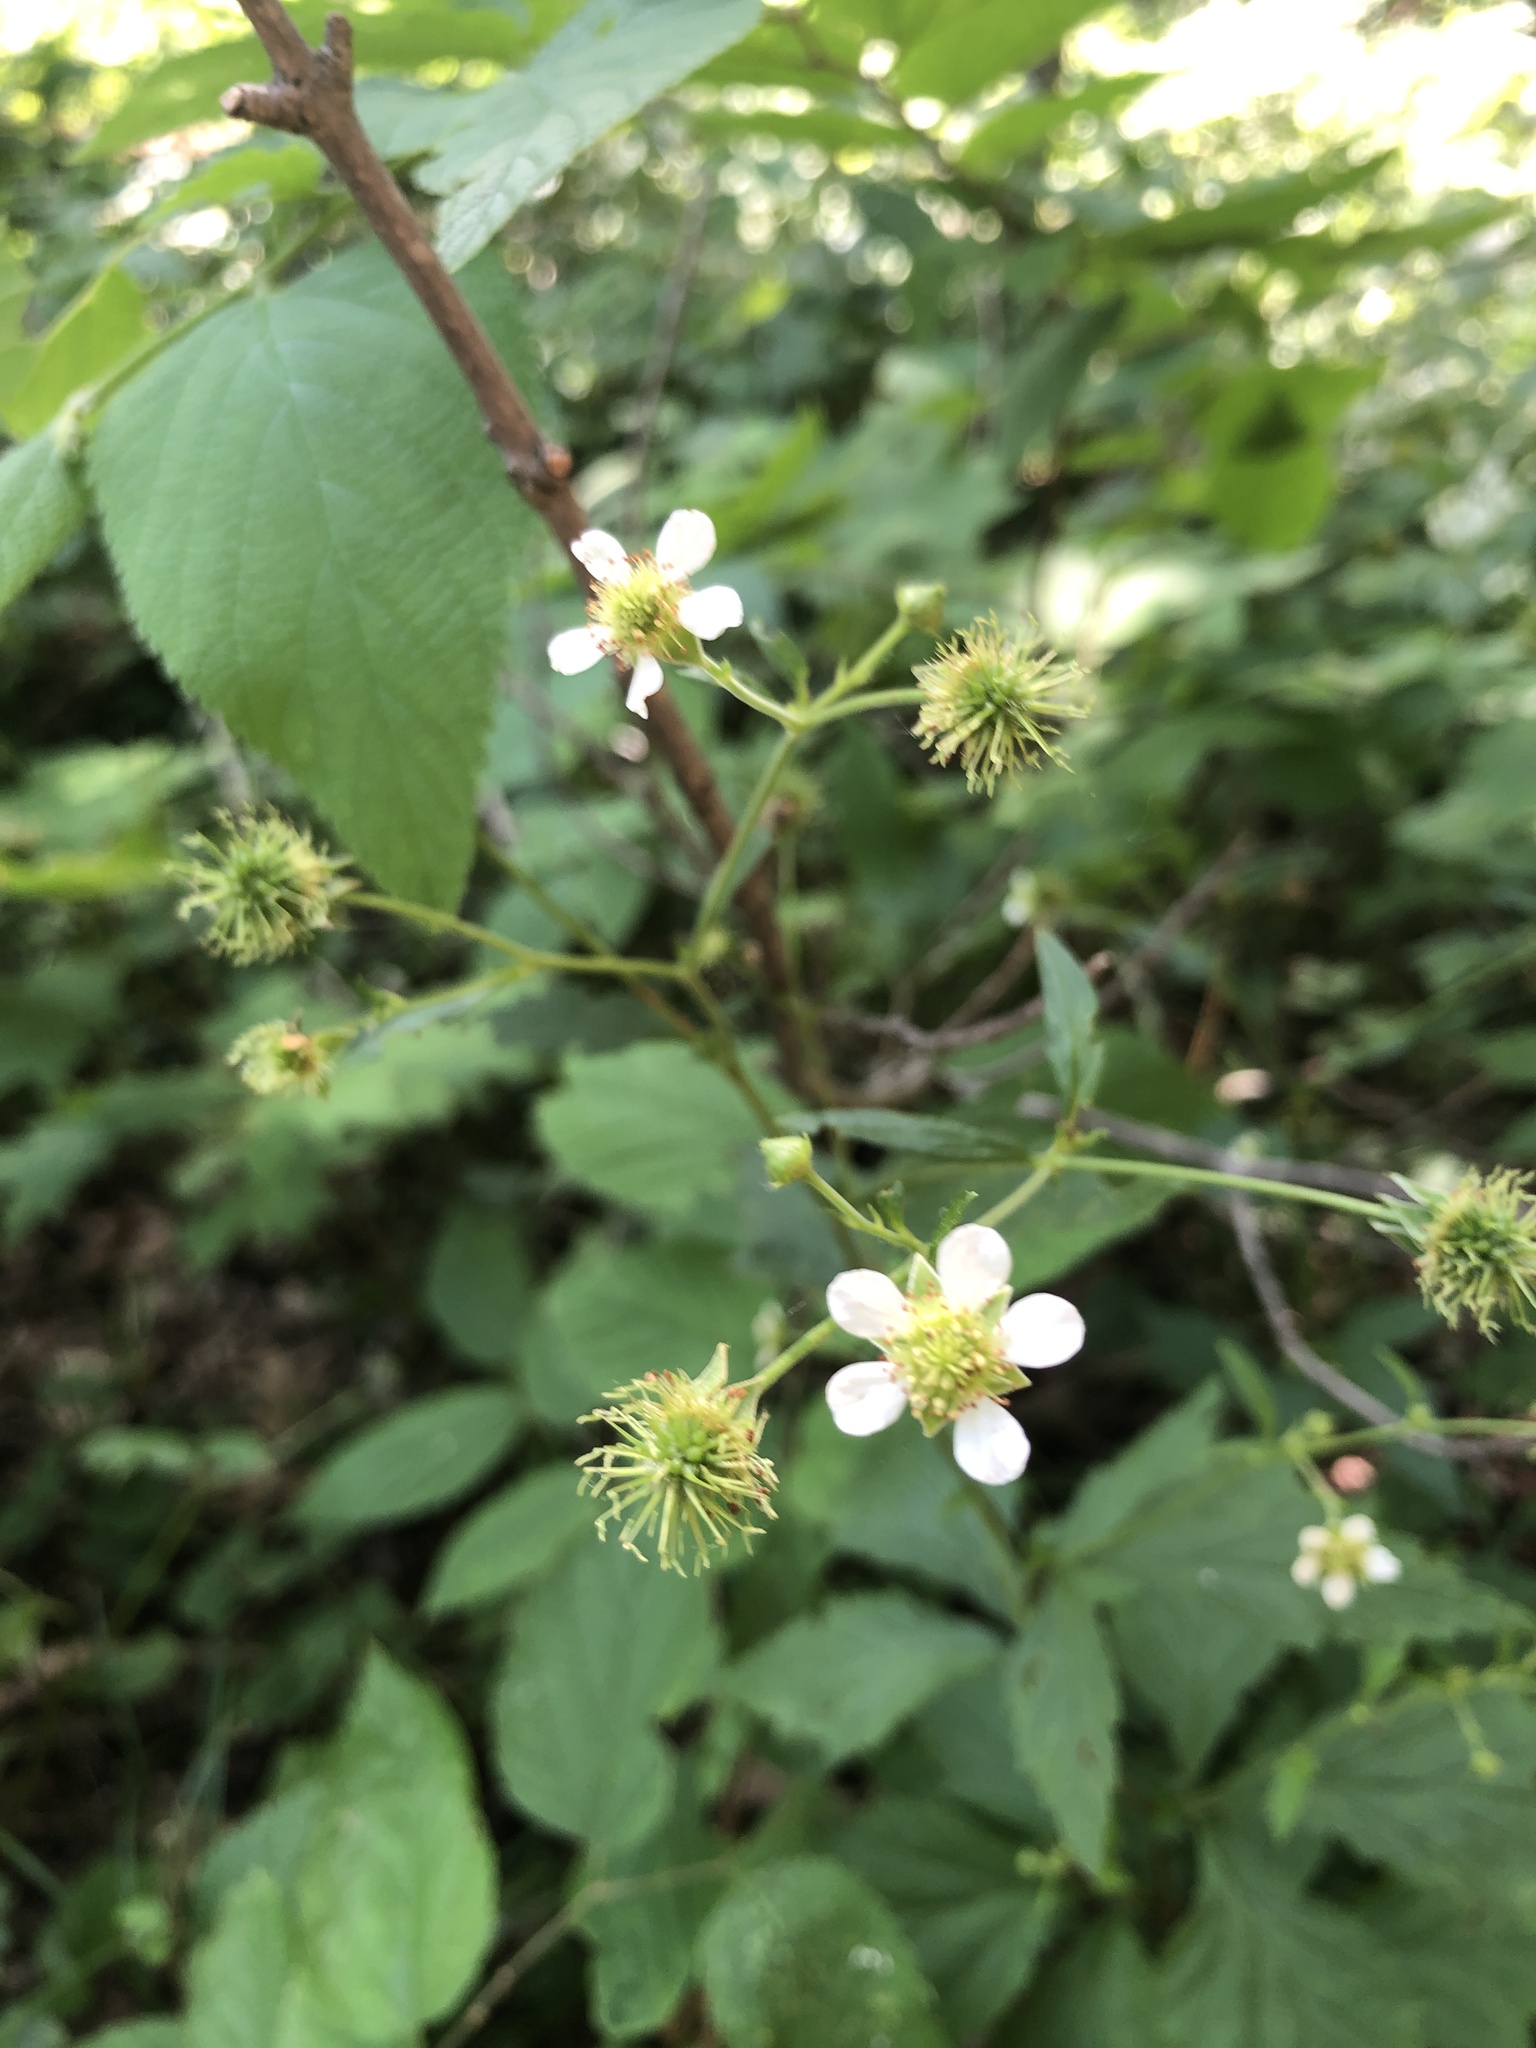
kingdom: Plantae
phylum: Tracheophyta
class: Magnoliopsida
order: Rosales
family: Rosaceae
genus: Geum
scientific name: Geum canadense
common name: White avens
